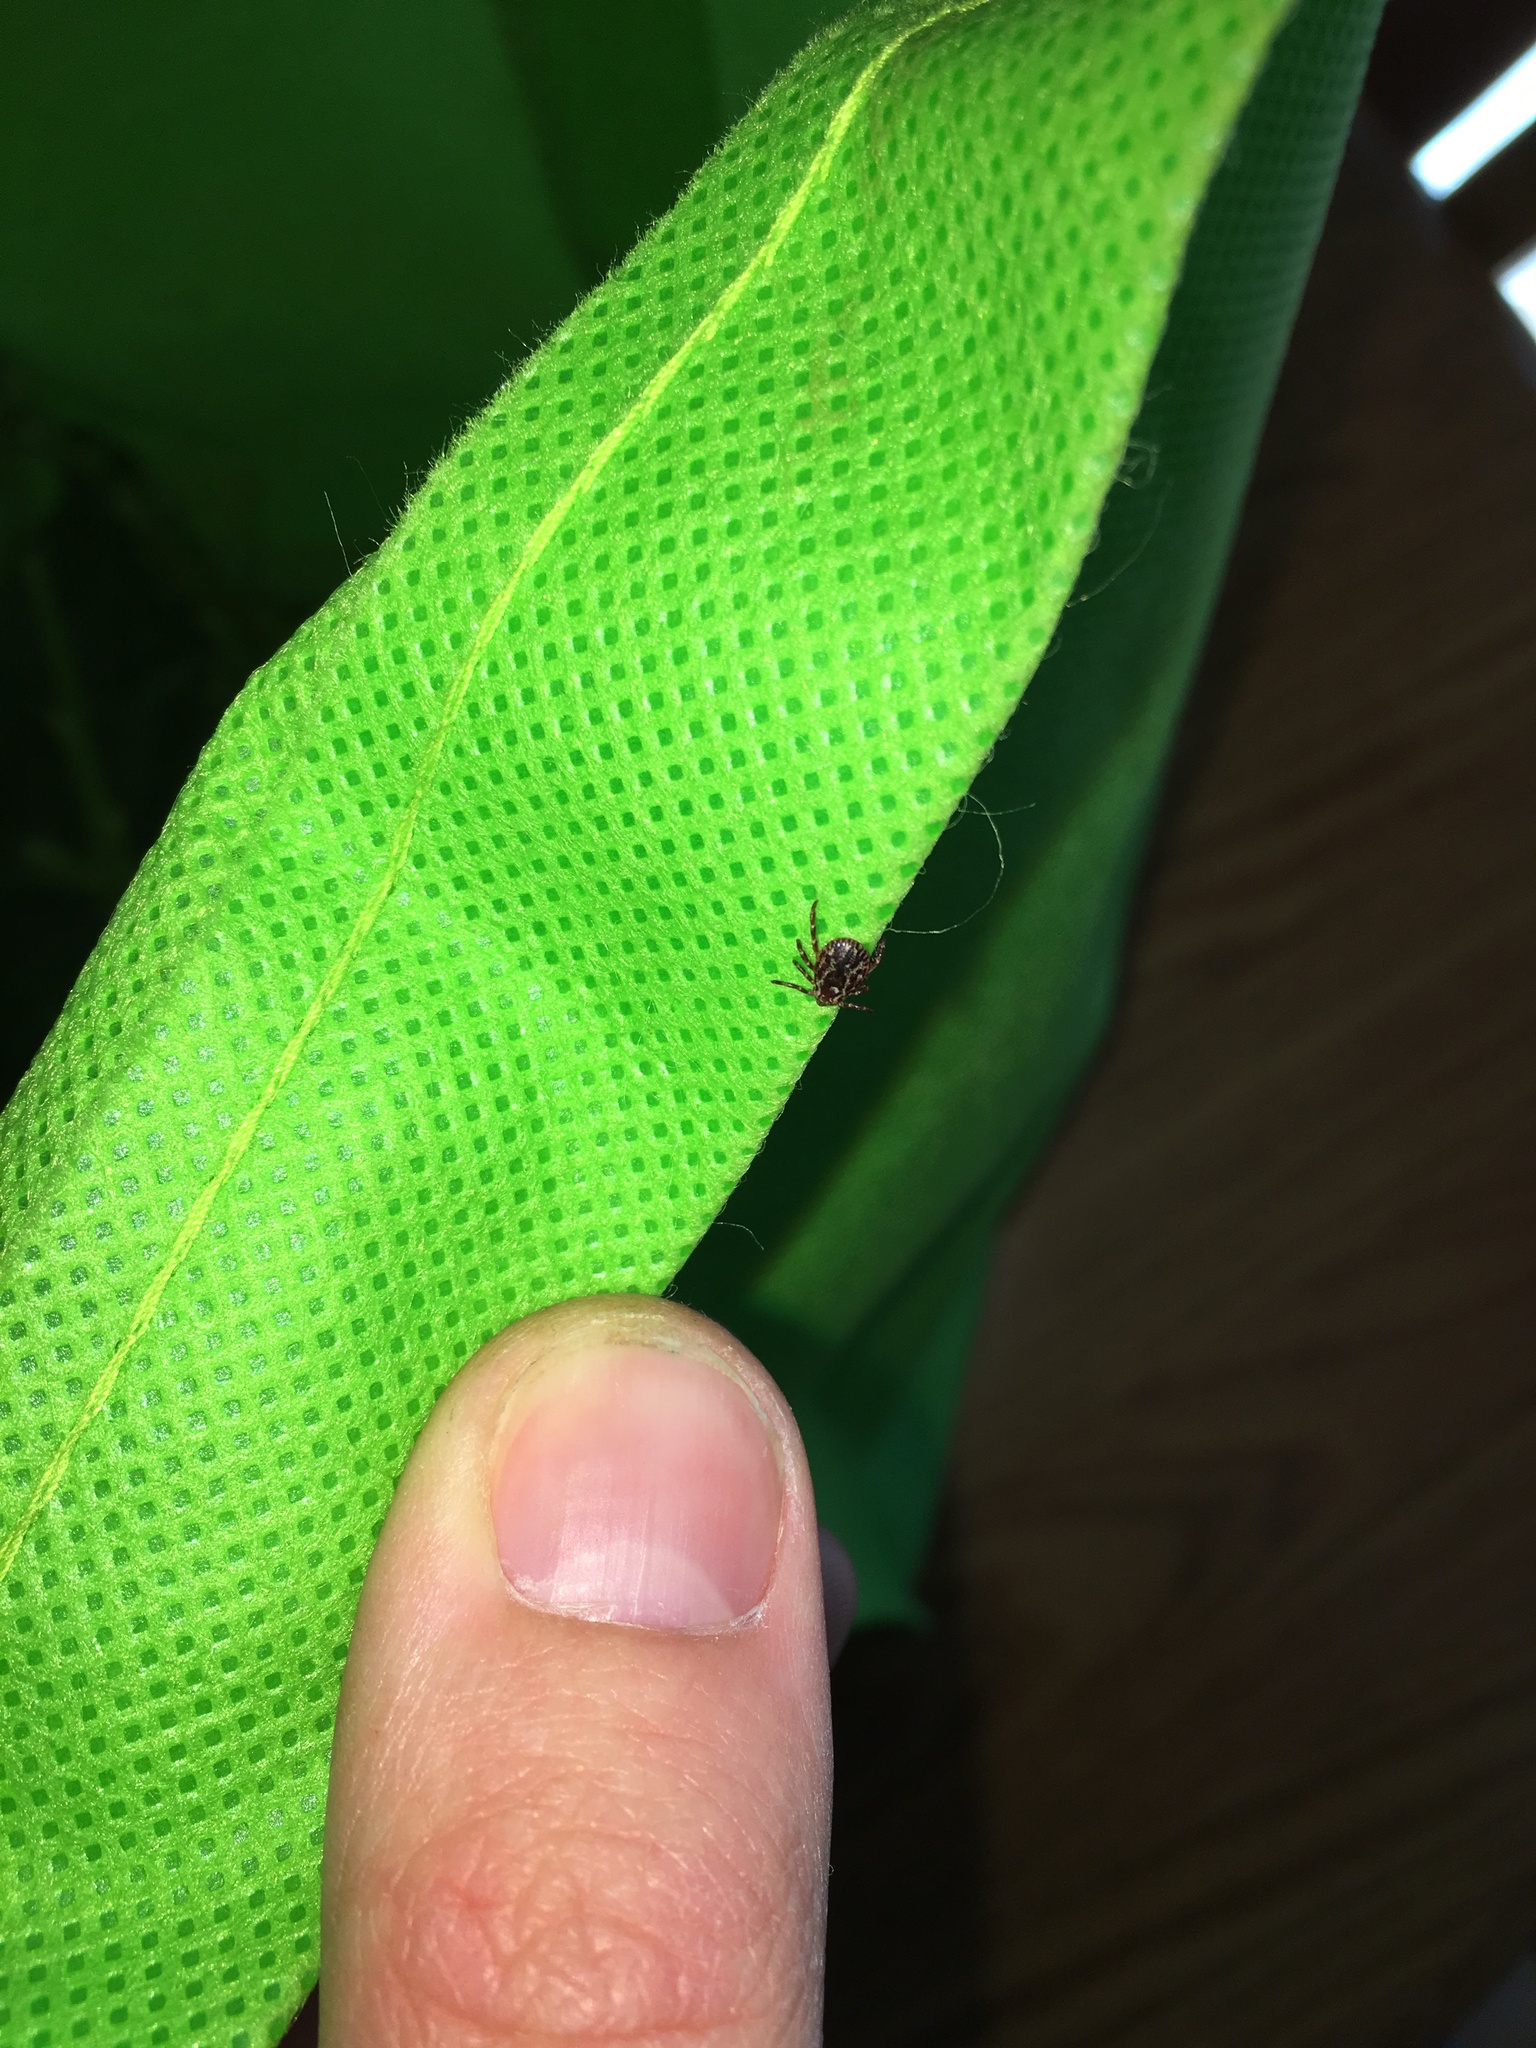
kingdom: Animalia
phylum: Arthropoda
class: Arachnida
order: Ixodida
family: Ixodidae
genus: Dermacentor
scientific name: Dermacentor variabilis
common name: American dog tick
